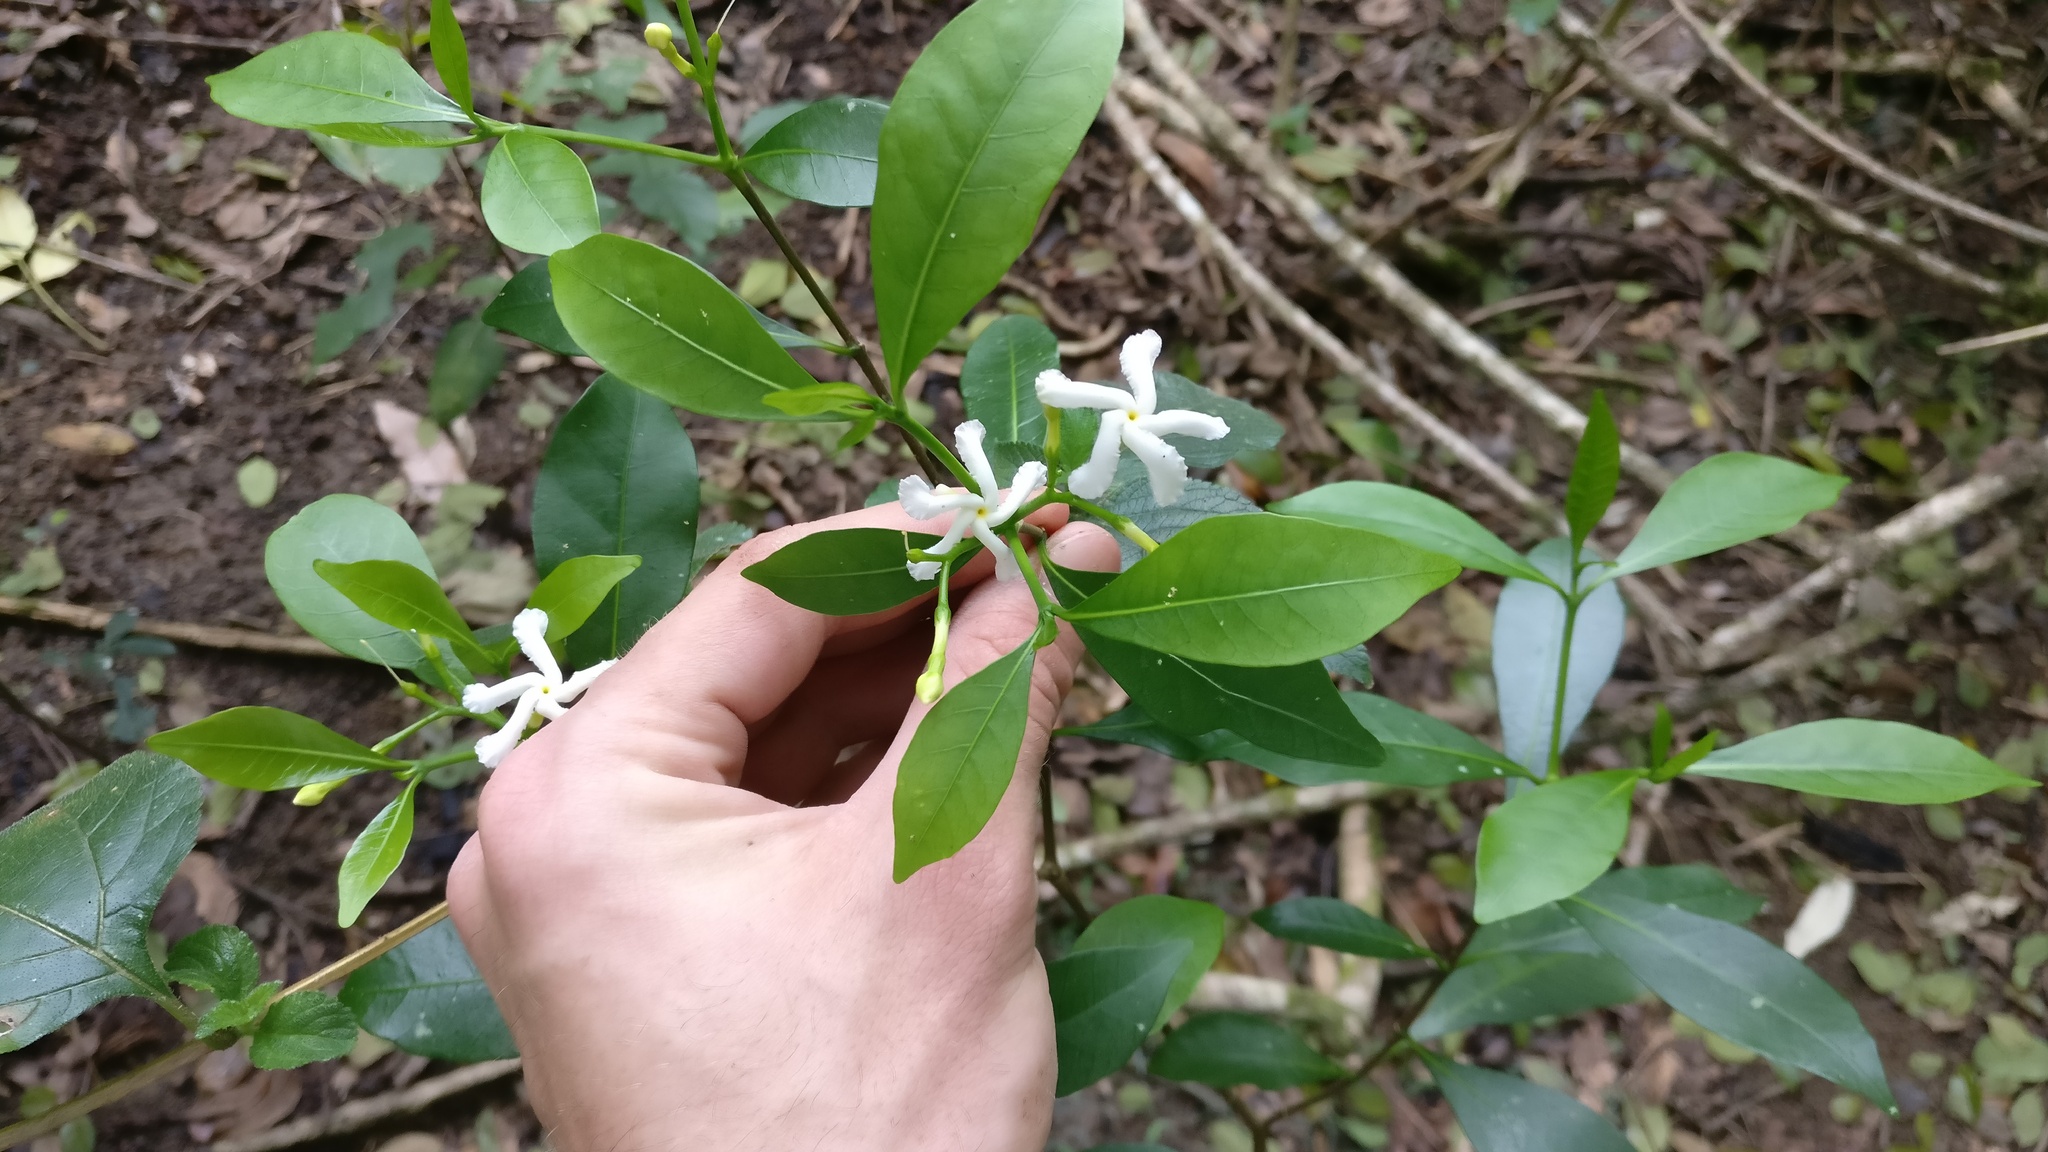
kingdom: Plantae
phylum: Tracheophyta
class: Magnoliopsida
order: Gentianales
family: Apocynaceae
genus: Tabernaemontana
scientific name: Tabernaemontana pandacaqui
